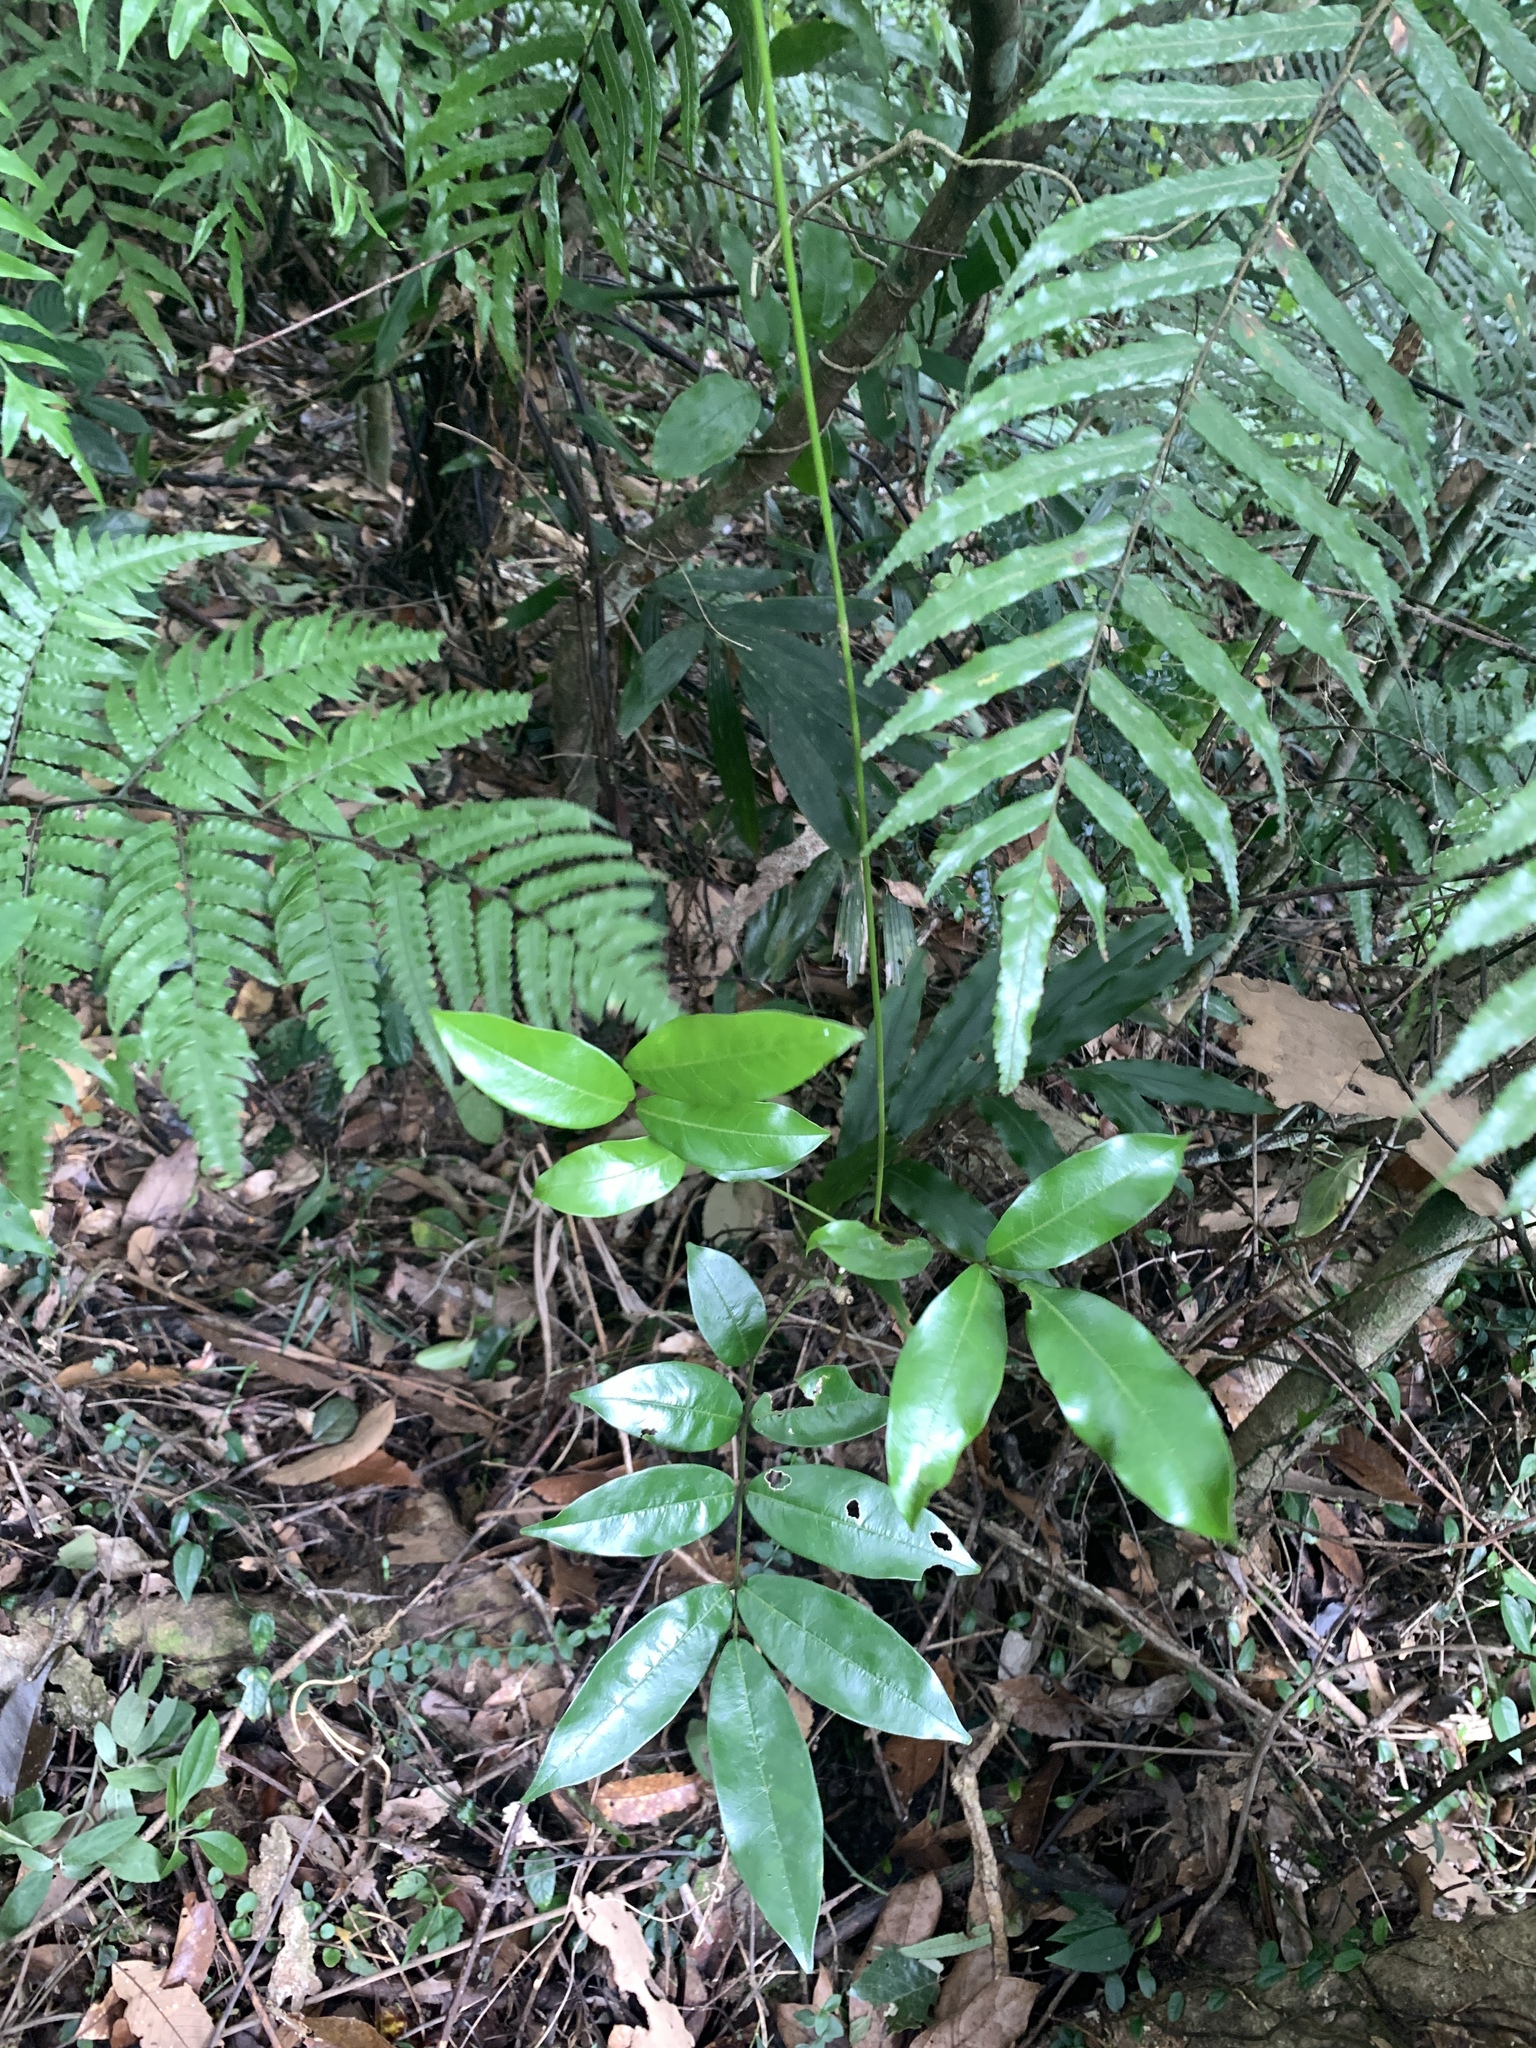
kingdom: Plantae
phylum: Tracheophyta
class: Magnoliopsida
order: Fabales
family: Fabaceae
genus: Derris
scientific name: Derris laxiflora
